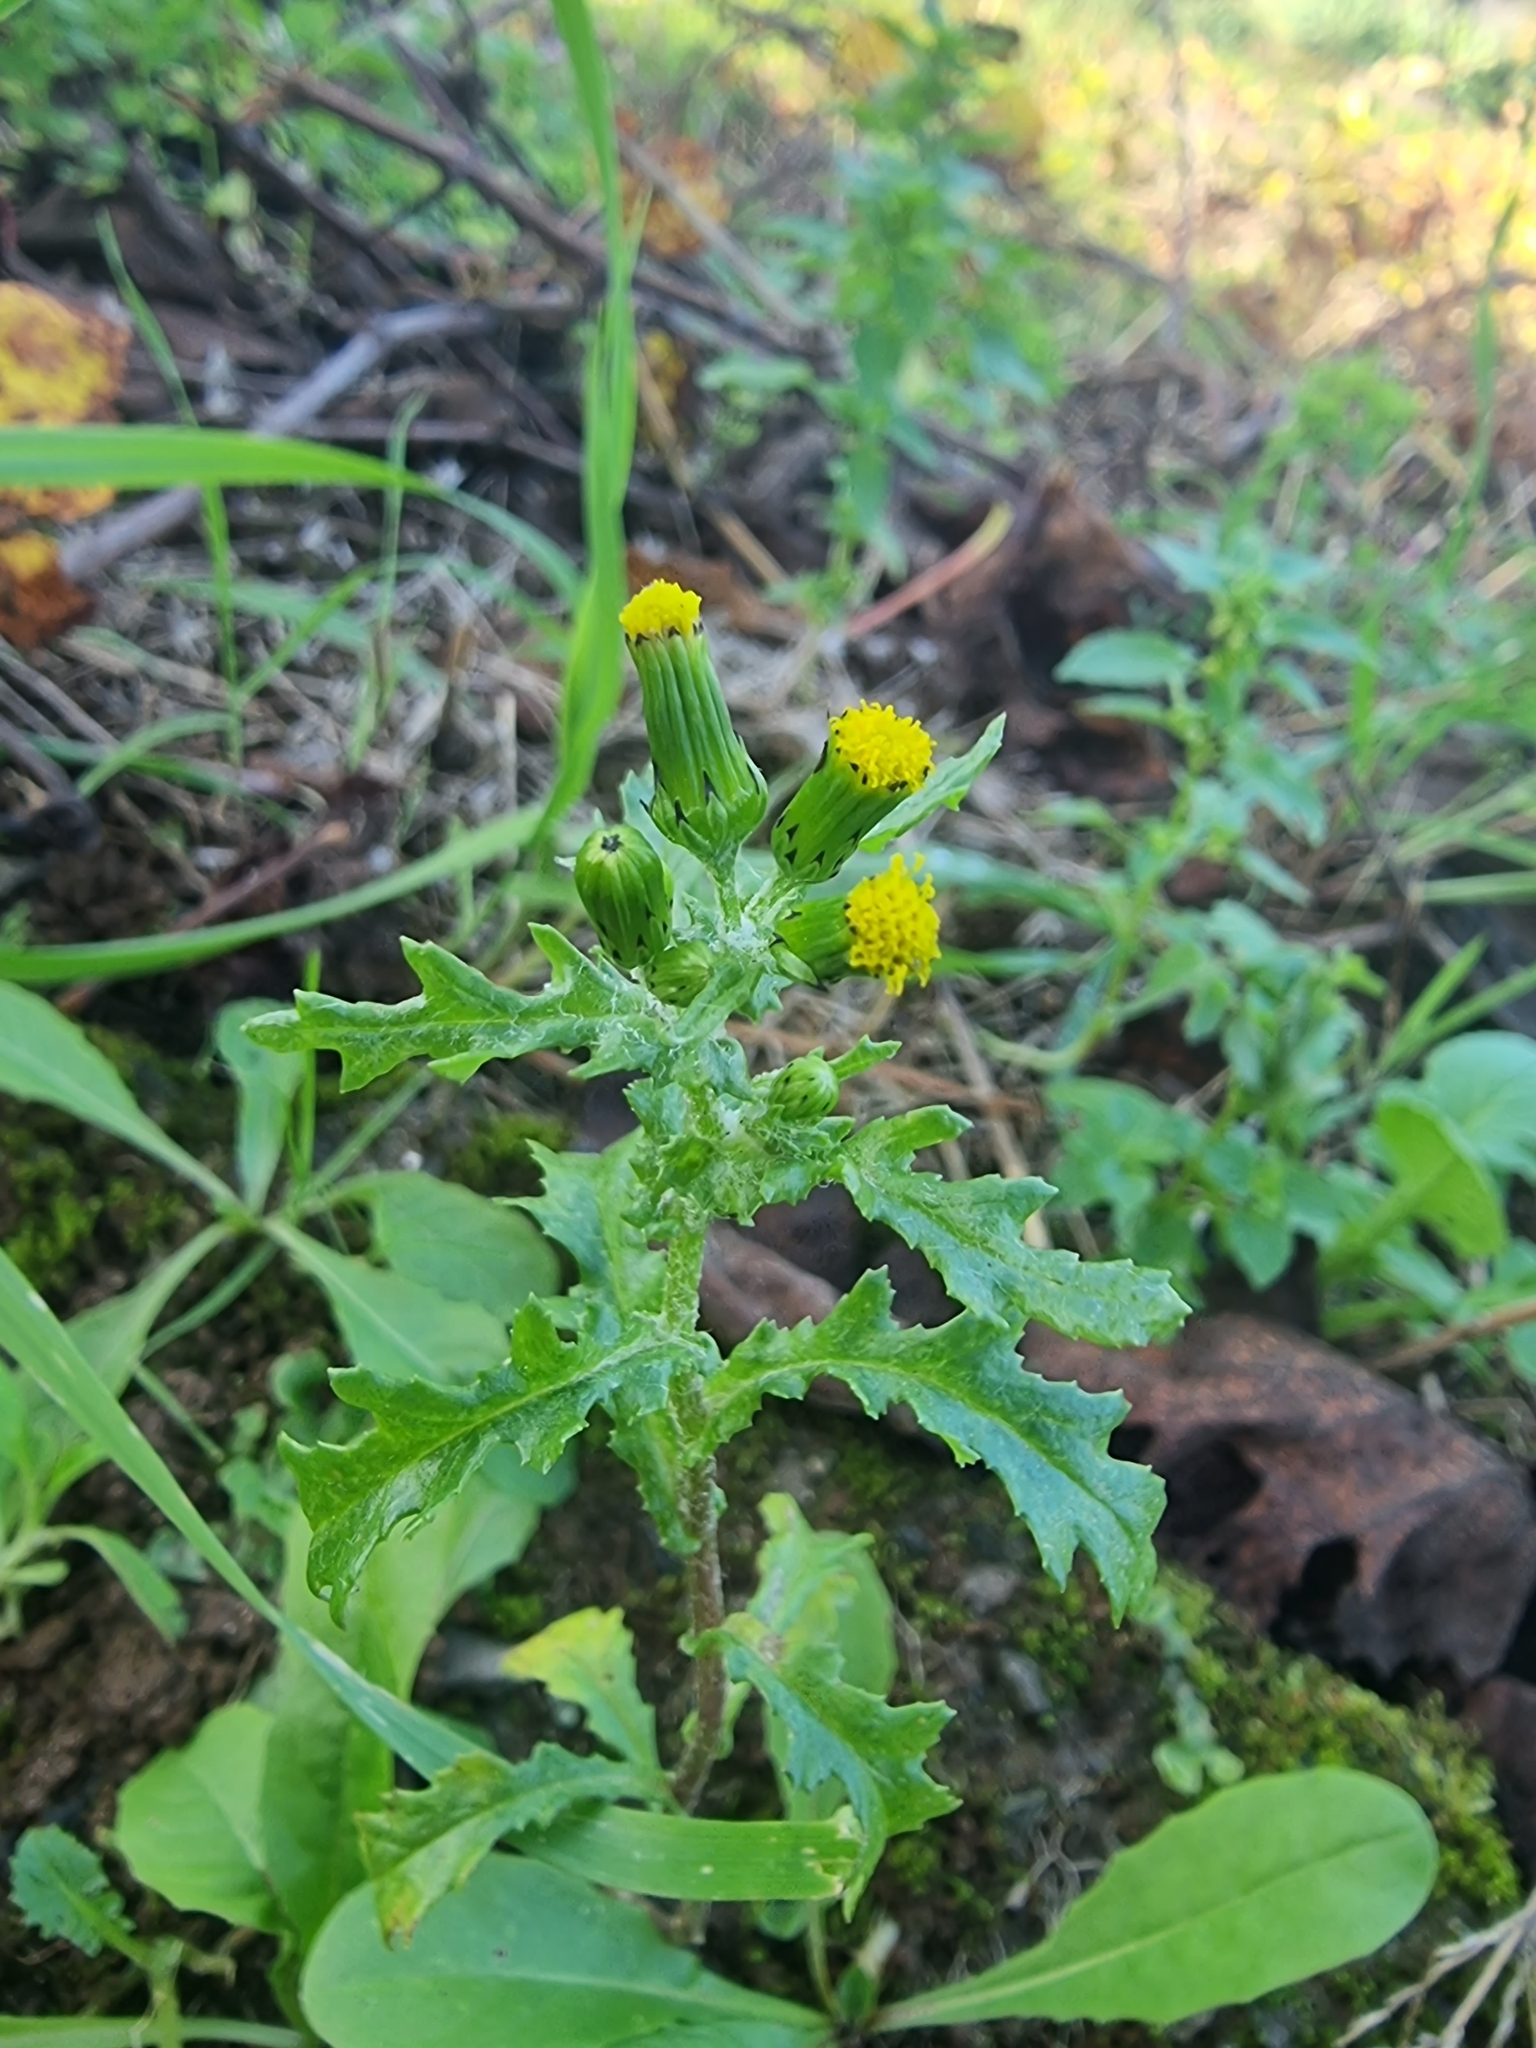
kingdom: Plantae
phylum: Tracheophyta
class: Magnoliopsida
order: Asterales
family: Asteraceae
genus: Senecio
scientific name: Senecio vulgaris
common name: Old-man-in-the-spring
